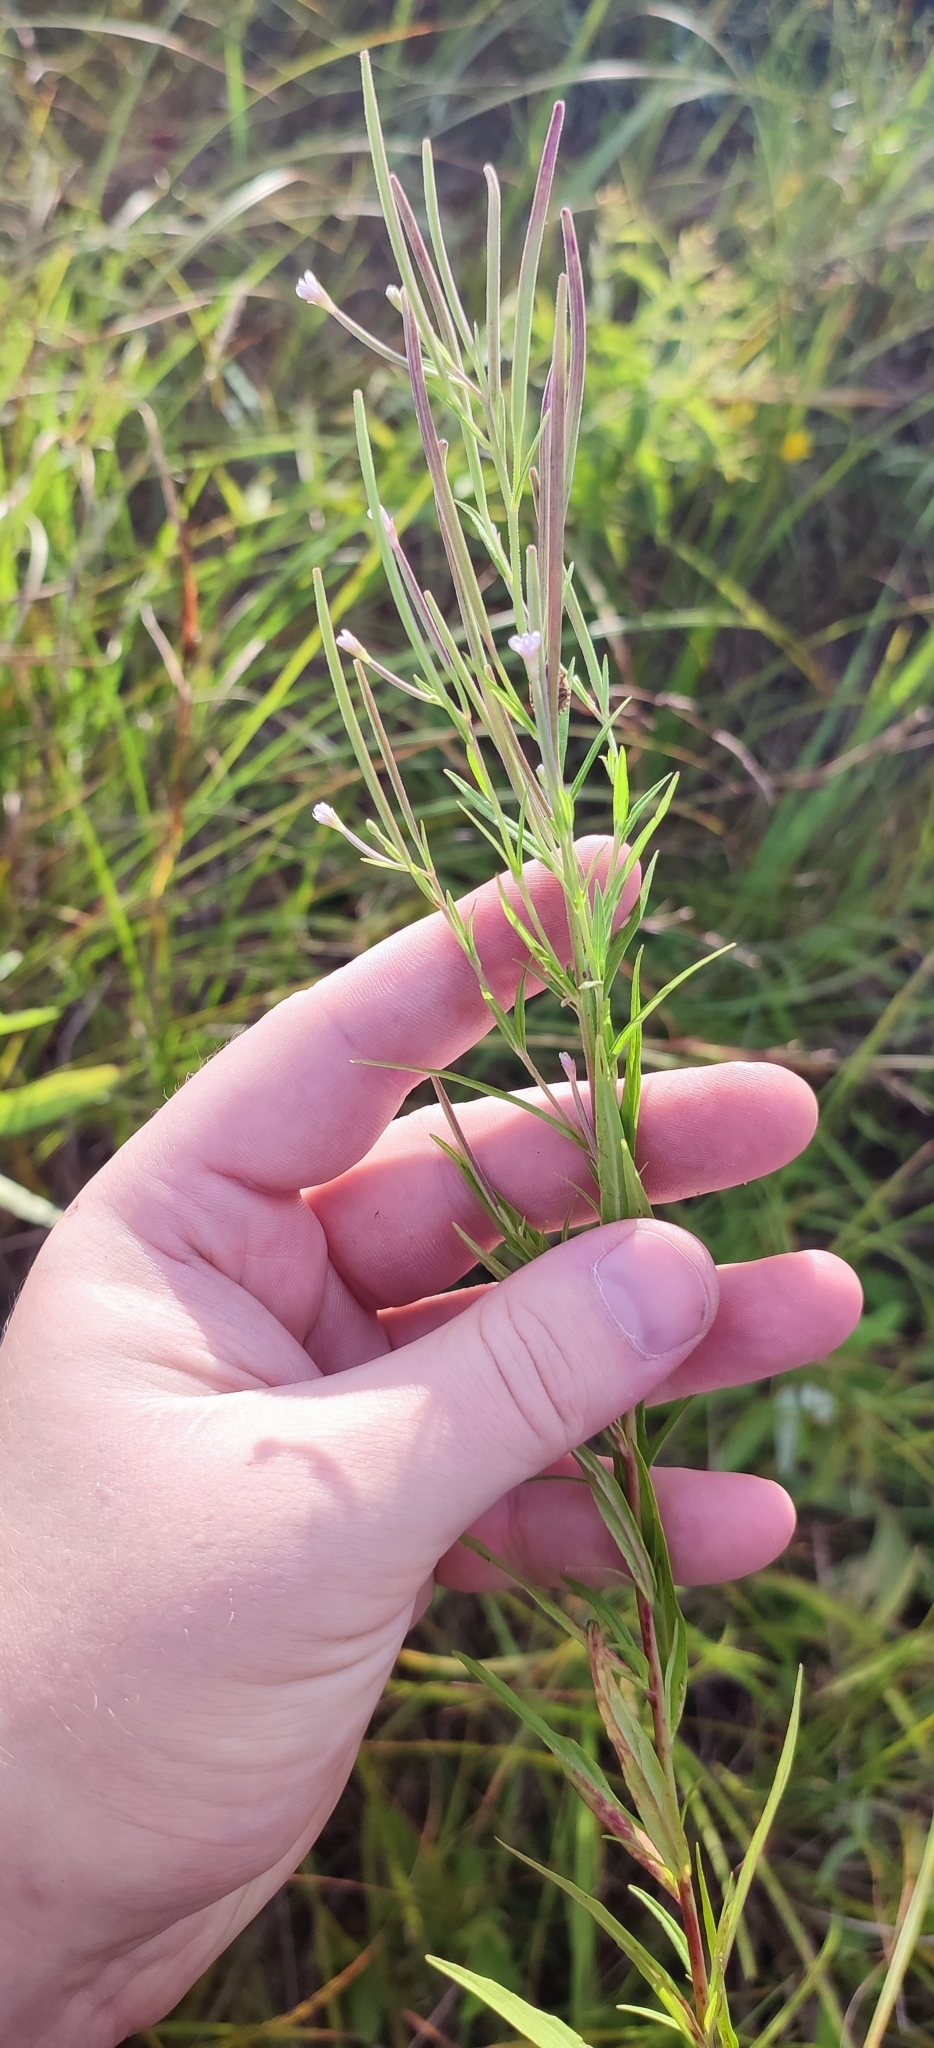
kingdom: Plantae
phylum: Tracheophyta
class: Magnoliopsida
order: Myrtales
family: Onagraceae
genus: Epilobium
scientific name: Epilobium palustre
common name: Marsh willowherb
